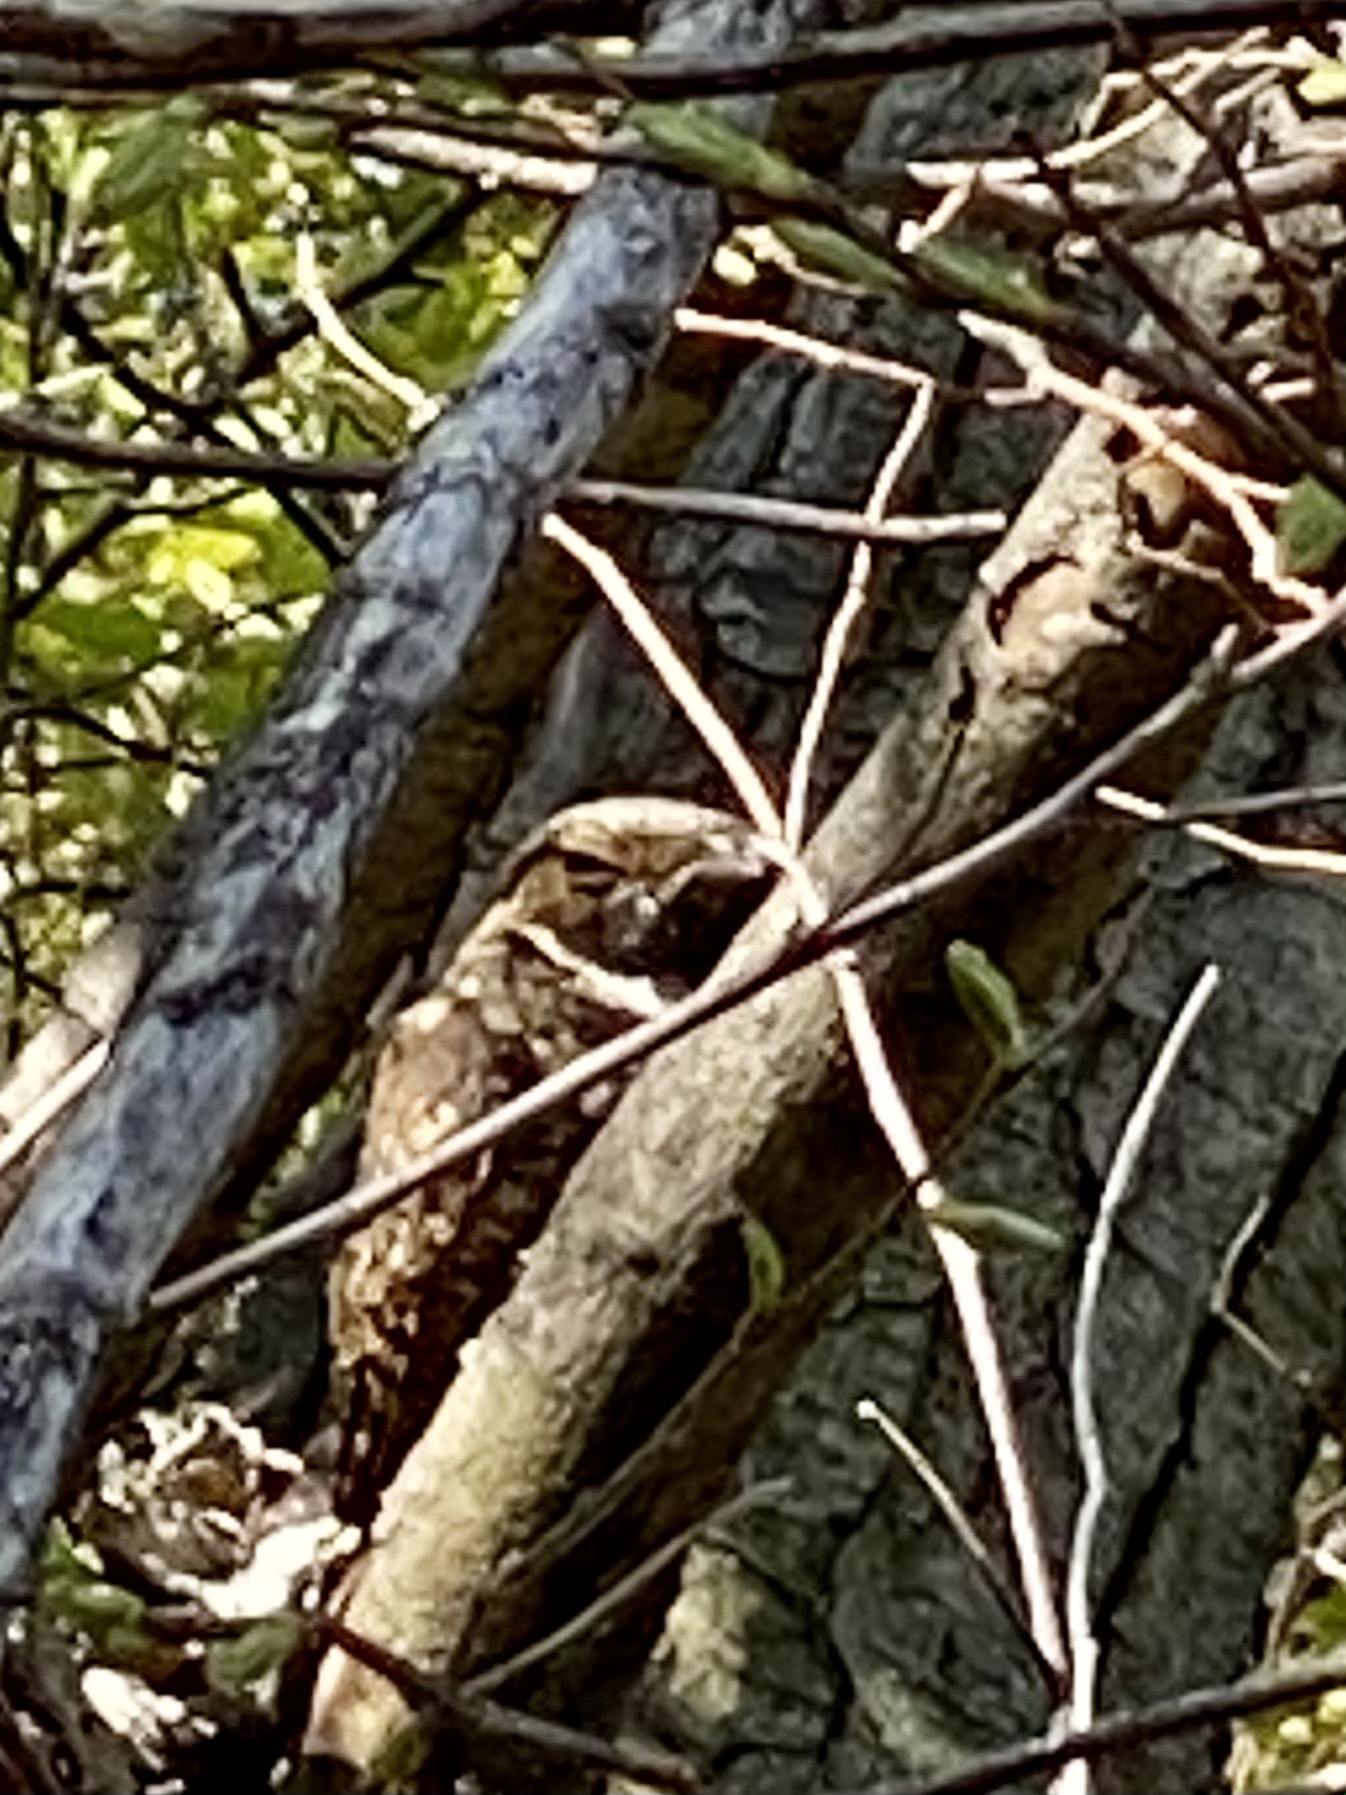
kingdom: Animalia
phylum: Chordata
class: Aves
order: Caprimulgiformes
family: Caprimulgidae
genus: Antrostomus
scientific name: Antrostomus vociferus
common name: Eastern whip-poor-will
